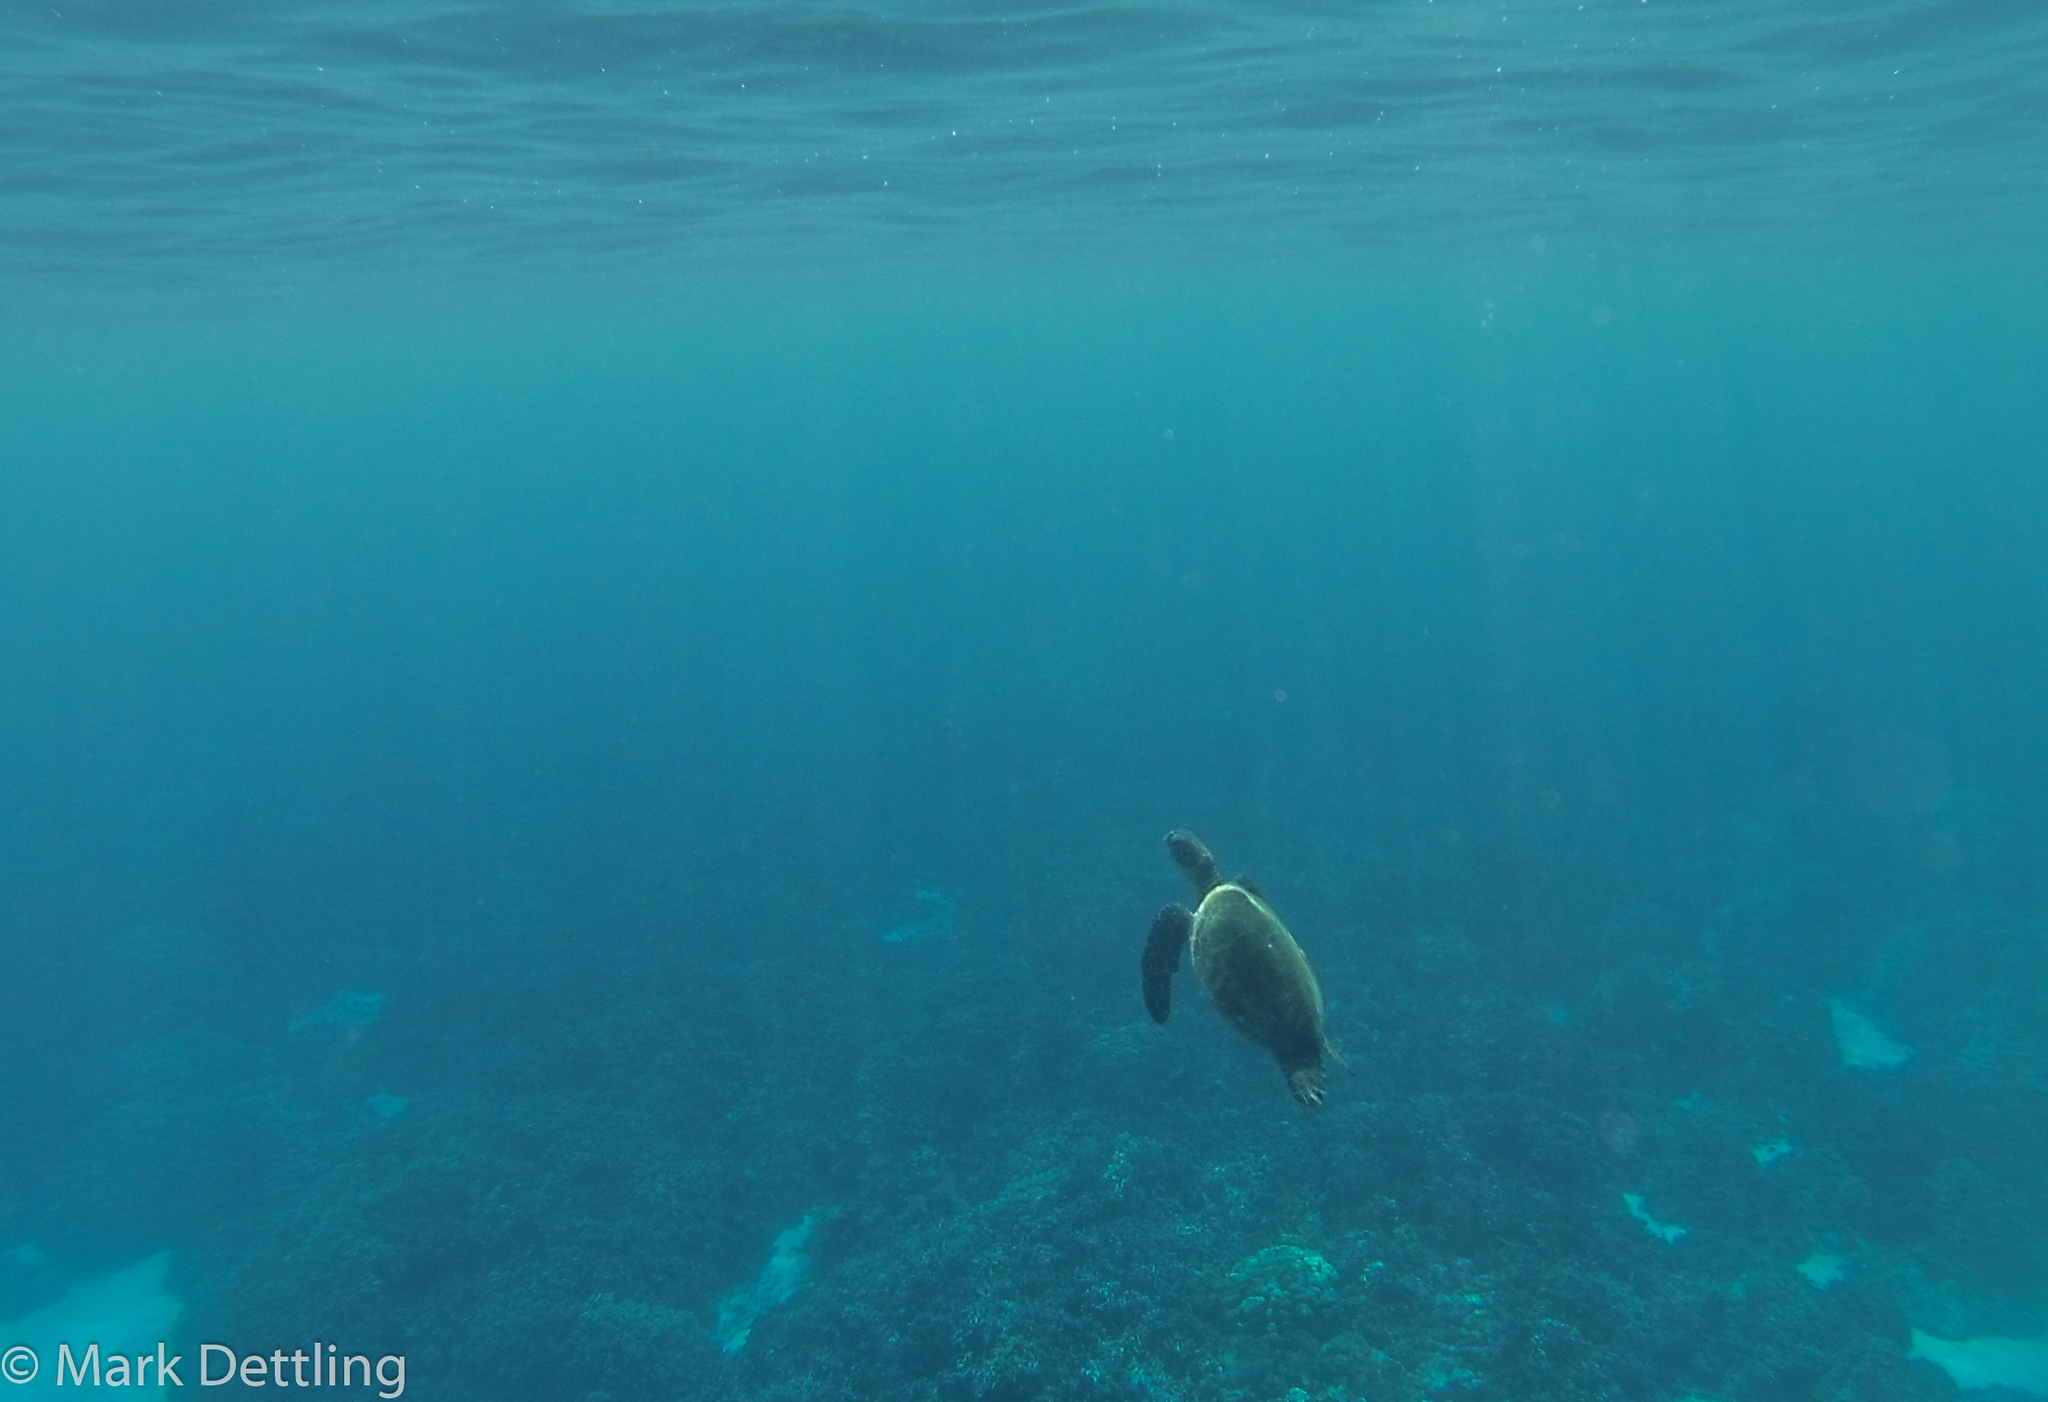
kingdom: Animalia
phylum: Chordata
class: Testudines
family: Cheloniidae
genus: Chelonia
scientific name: Chelonia mydas
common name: Green turtle
